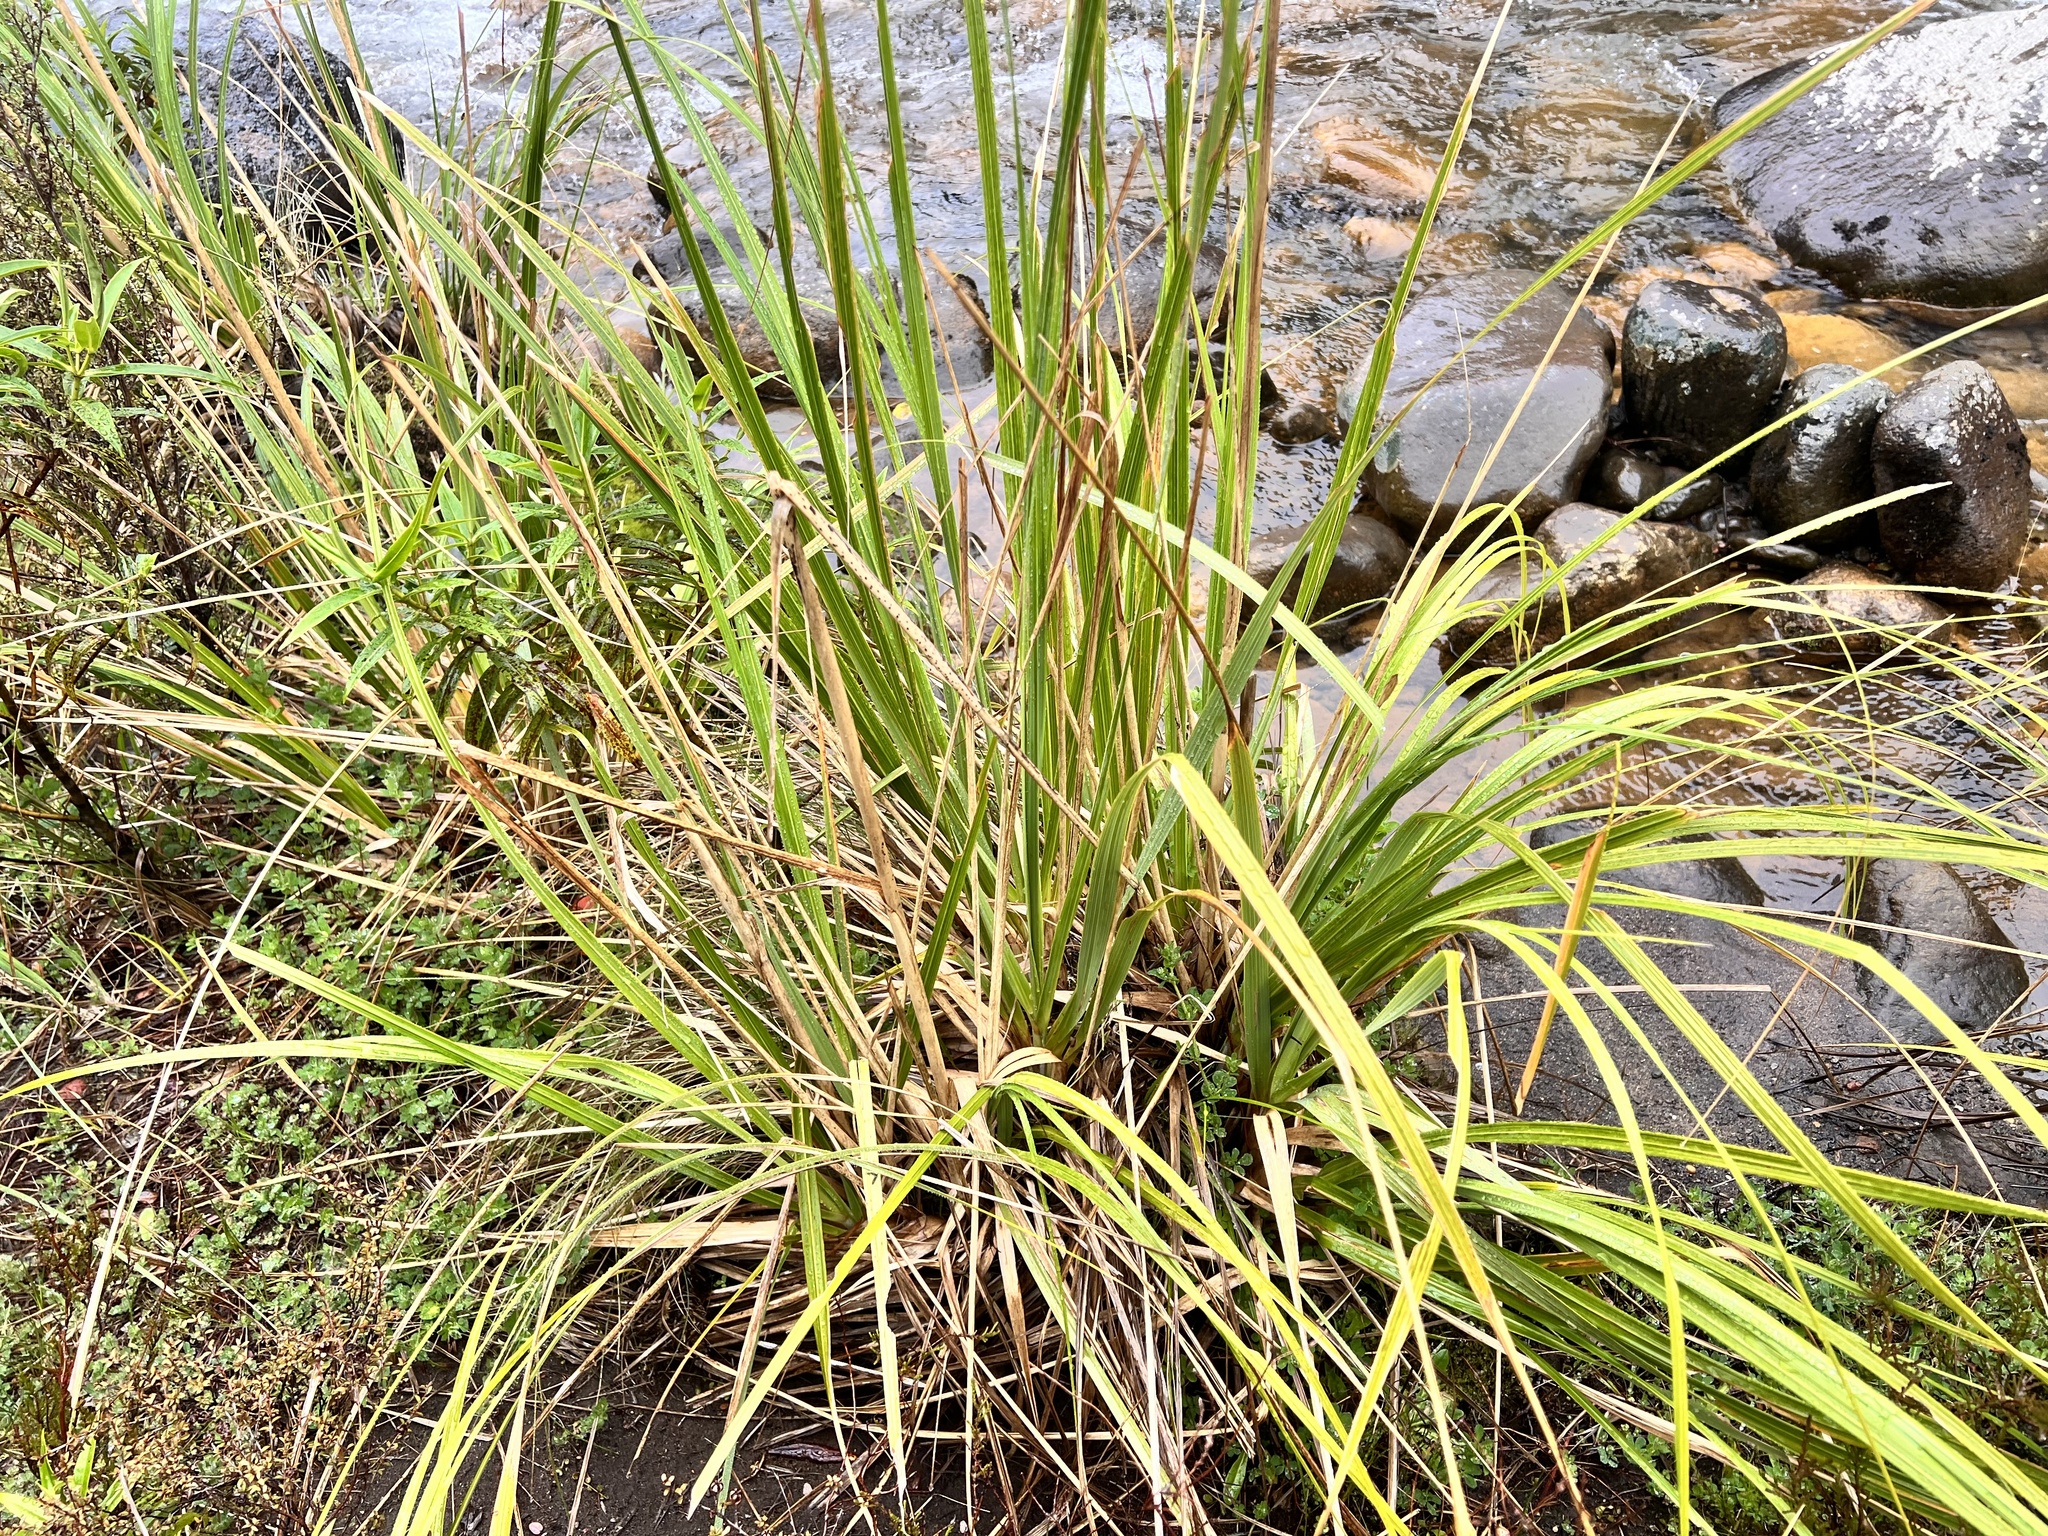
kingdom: Plantae
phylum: Tracheophyta
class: Liliopsida
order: Poales
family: Poaceae
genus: Austroderia
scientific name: Austroderia fulvida
